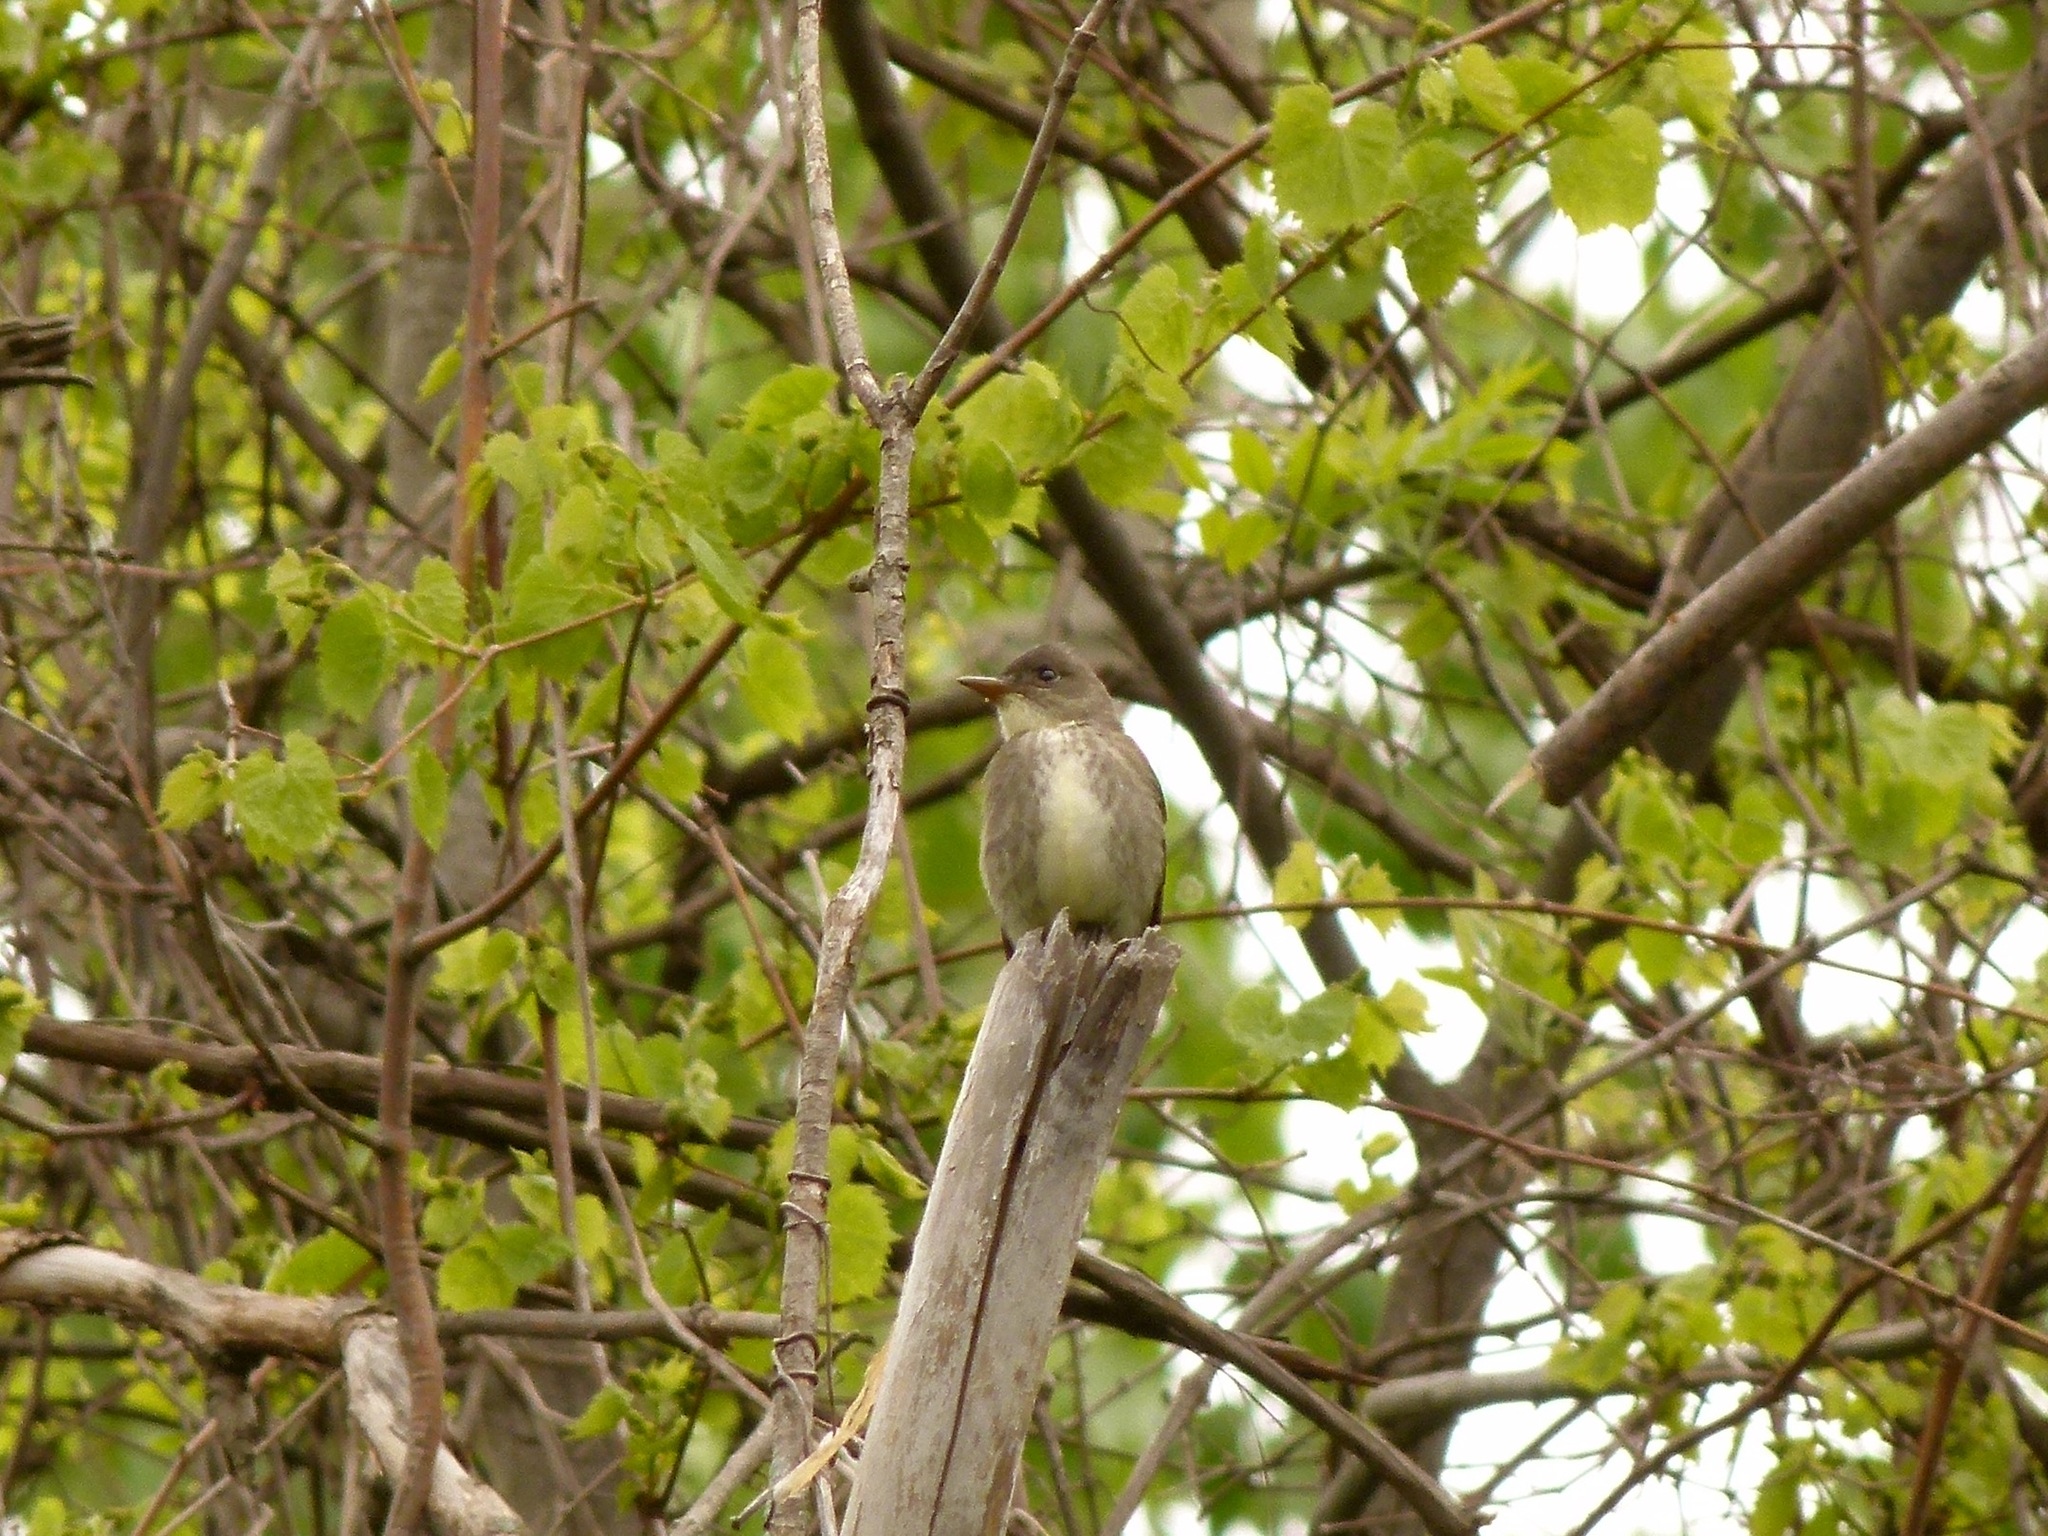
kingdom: Animalia
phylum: Chordata
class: Aves
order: Passeriformes
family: Tyrannidae
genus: Contopus
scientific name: Contopus cooperi
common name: Olive-sided flycatcher
